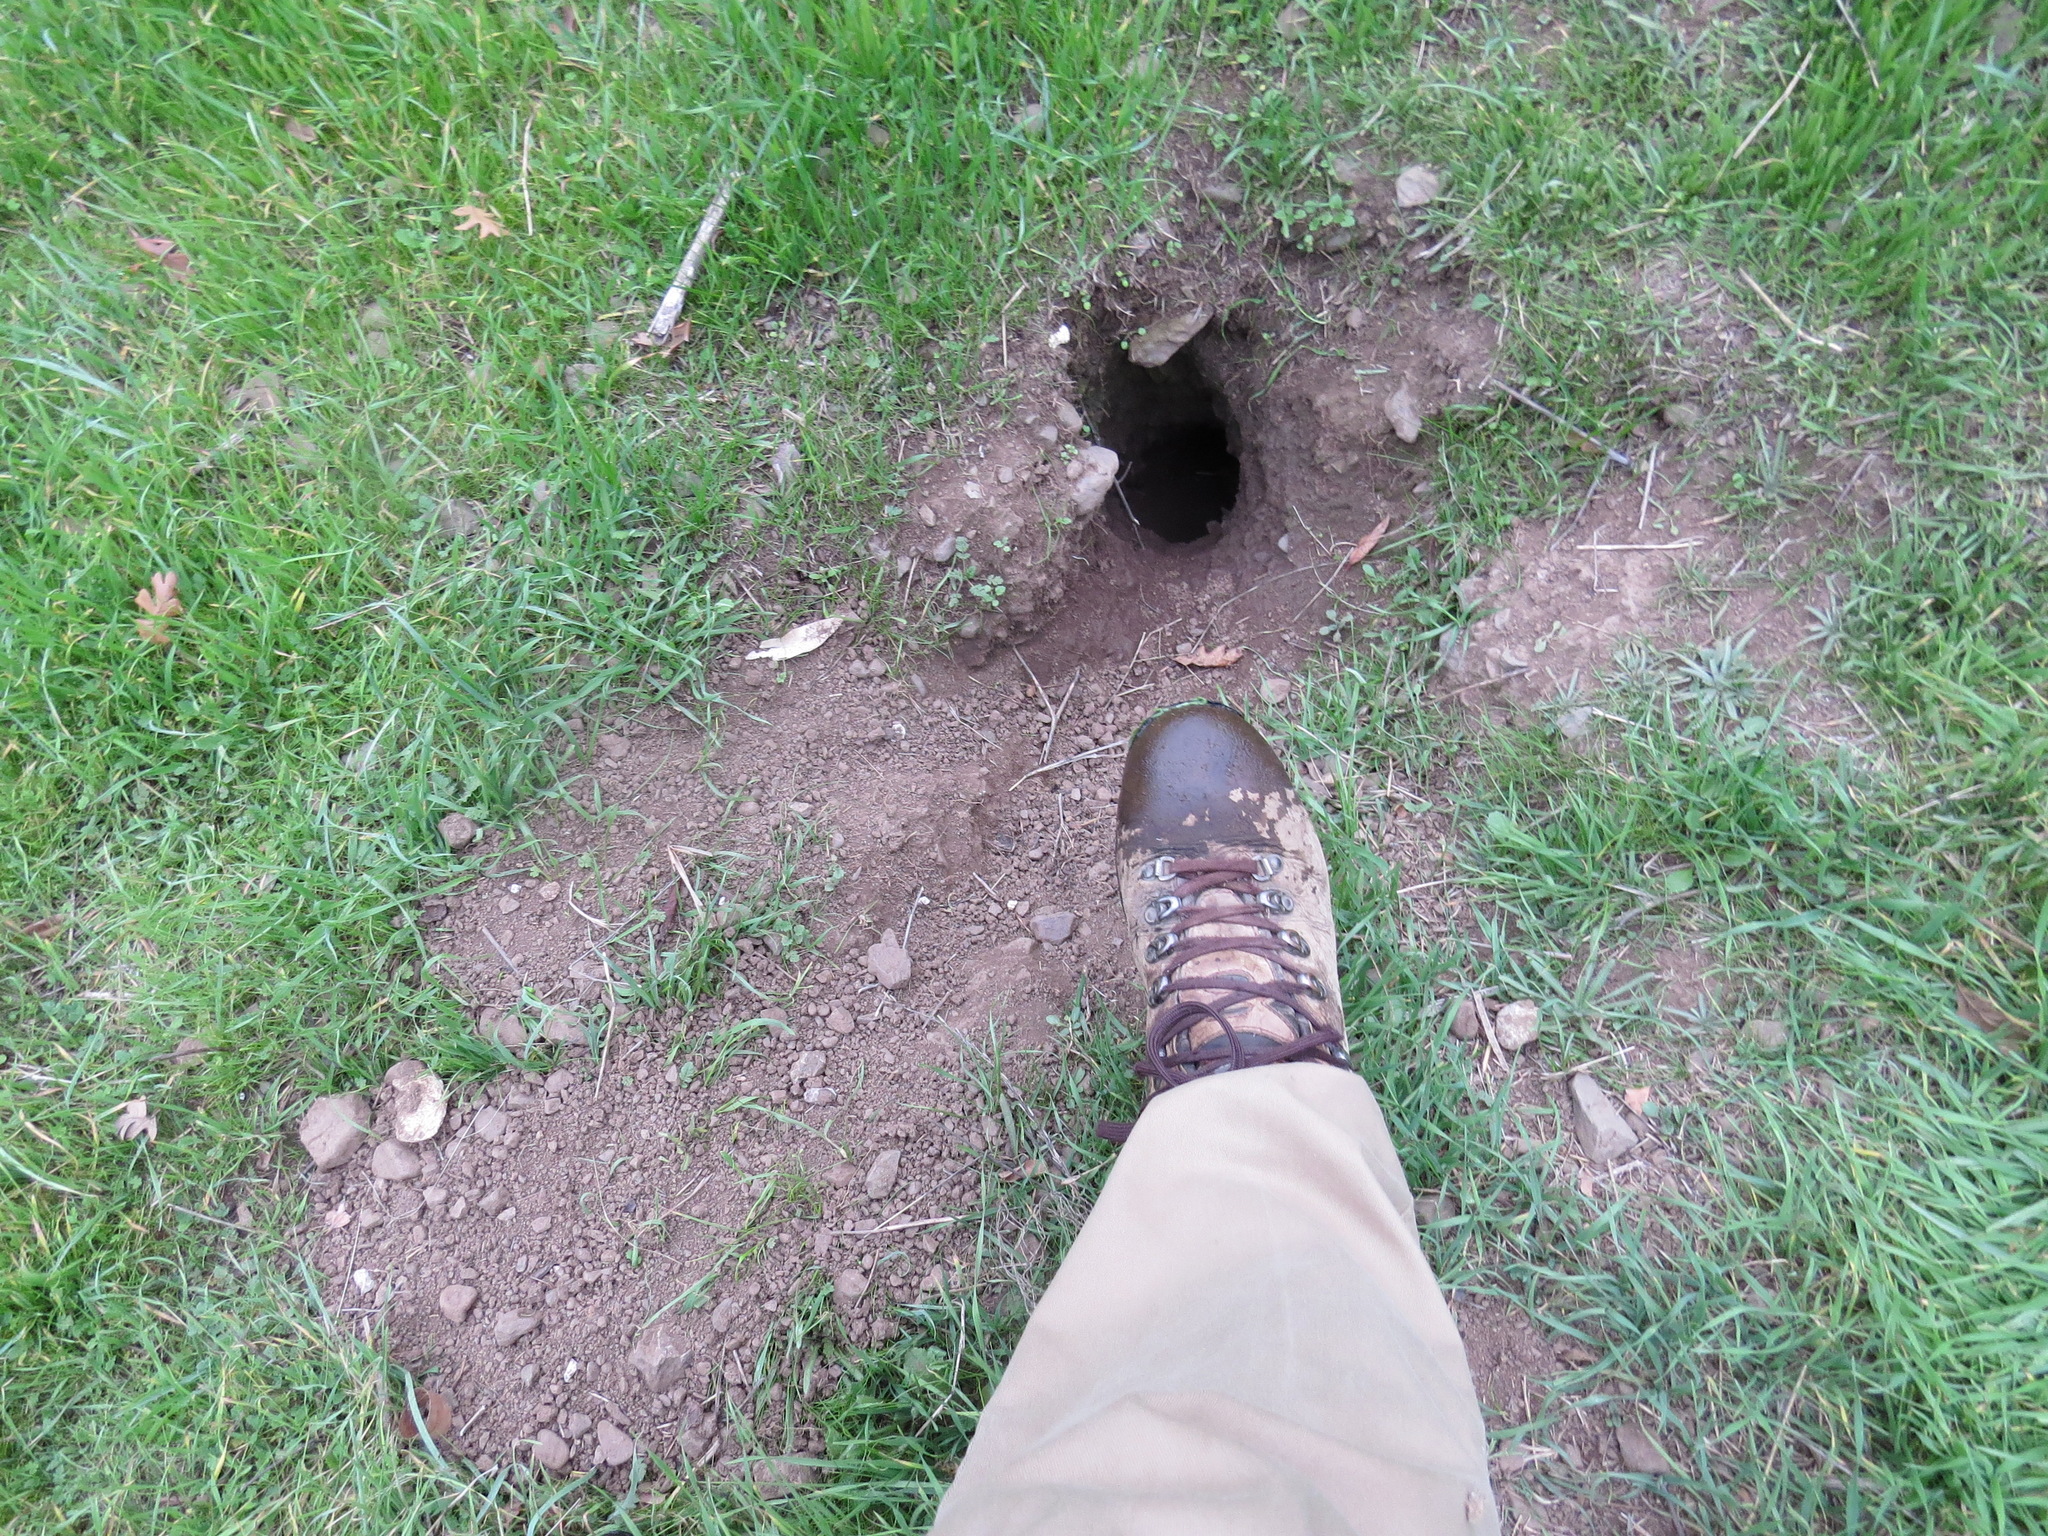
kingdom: Animalia
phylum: Chordata
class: Mammalia
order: Rodentia
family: Sciuridae
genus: Otospermophilus
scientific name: Otospermophilus beecheyi
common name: California ground squirrel
